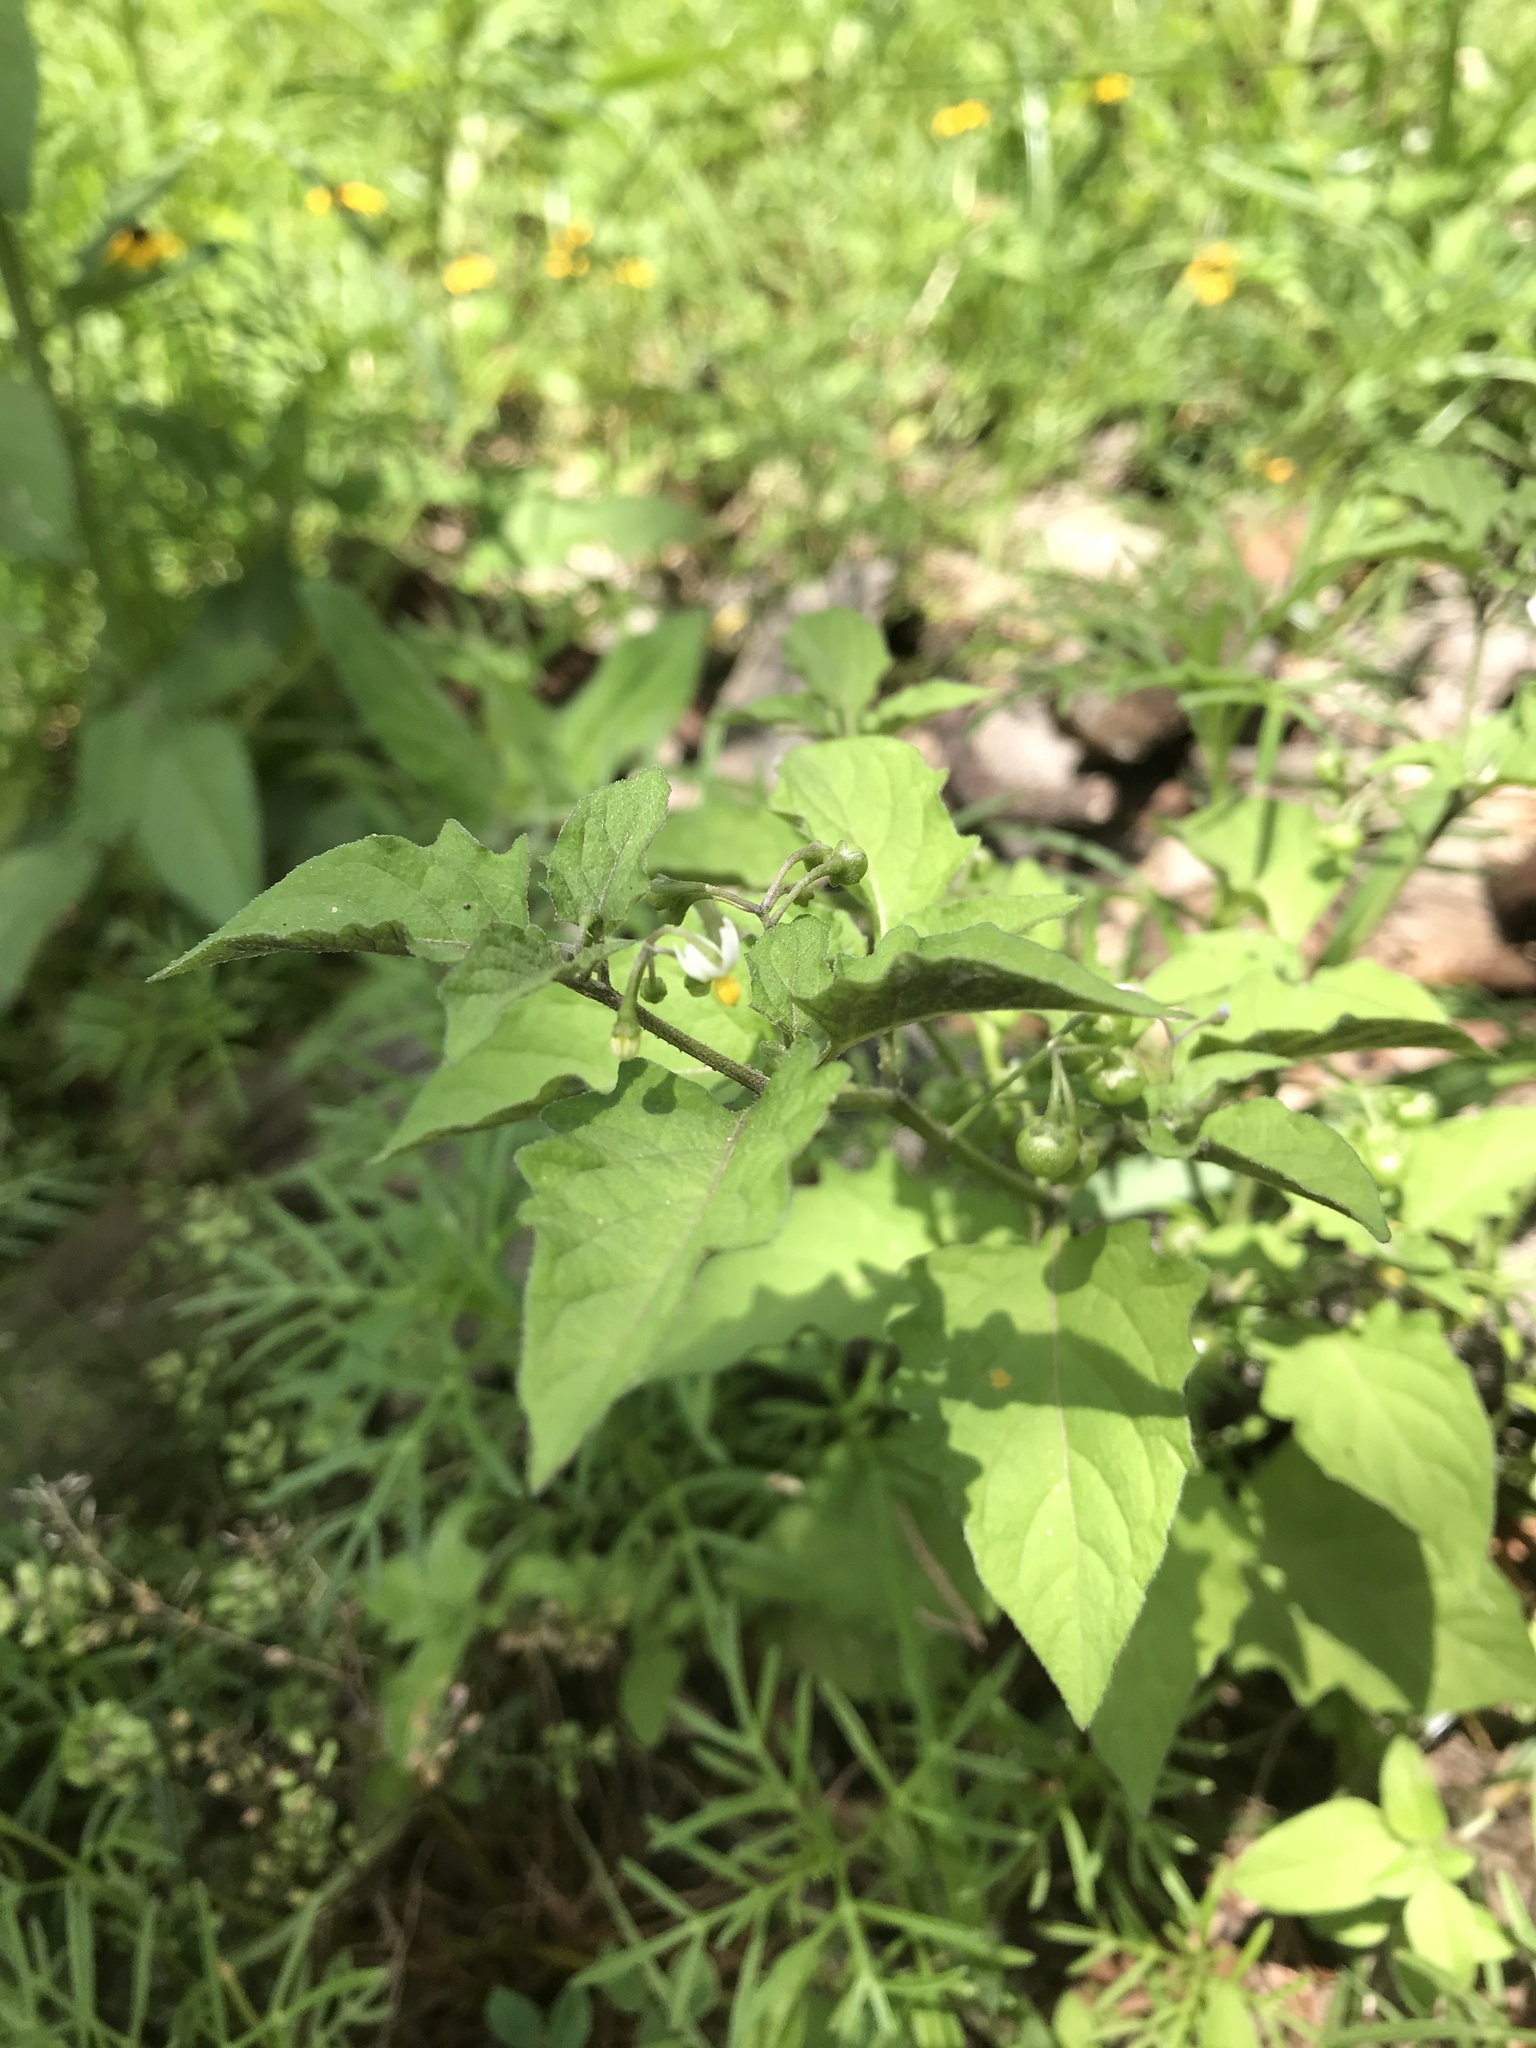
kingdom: Plantae
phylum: Tracheophyta
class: Magnoliopsida
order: Solanales
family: Solanaceae
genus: Solanum
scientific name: Solanum americanum
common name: American black nightshade
